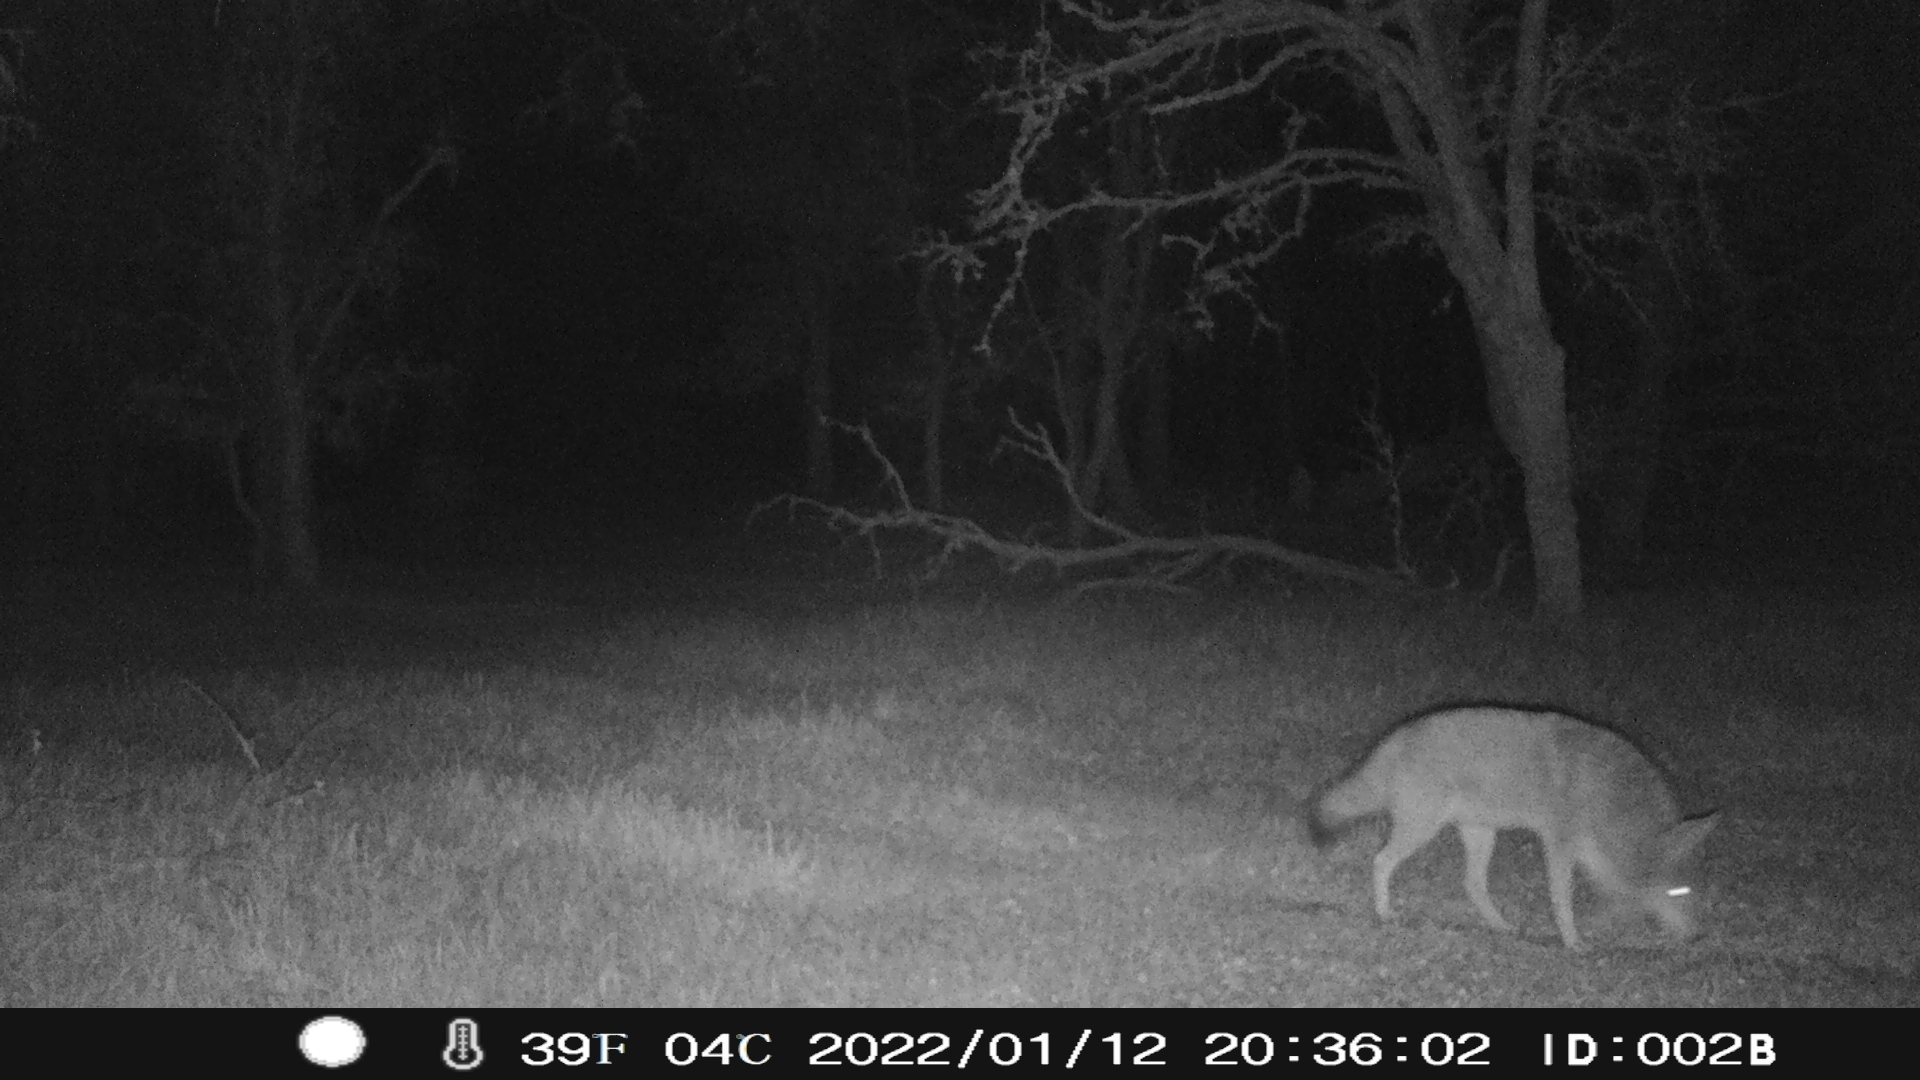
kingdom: Animalia
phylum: Chordata
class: Mammalia
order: Carnivora
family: Canidae
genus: Canis
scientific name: Canis latrans
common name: Coyote
